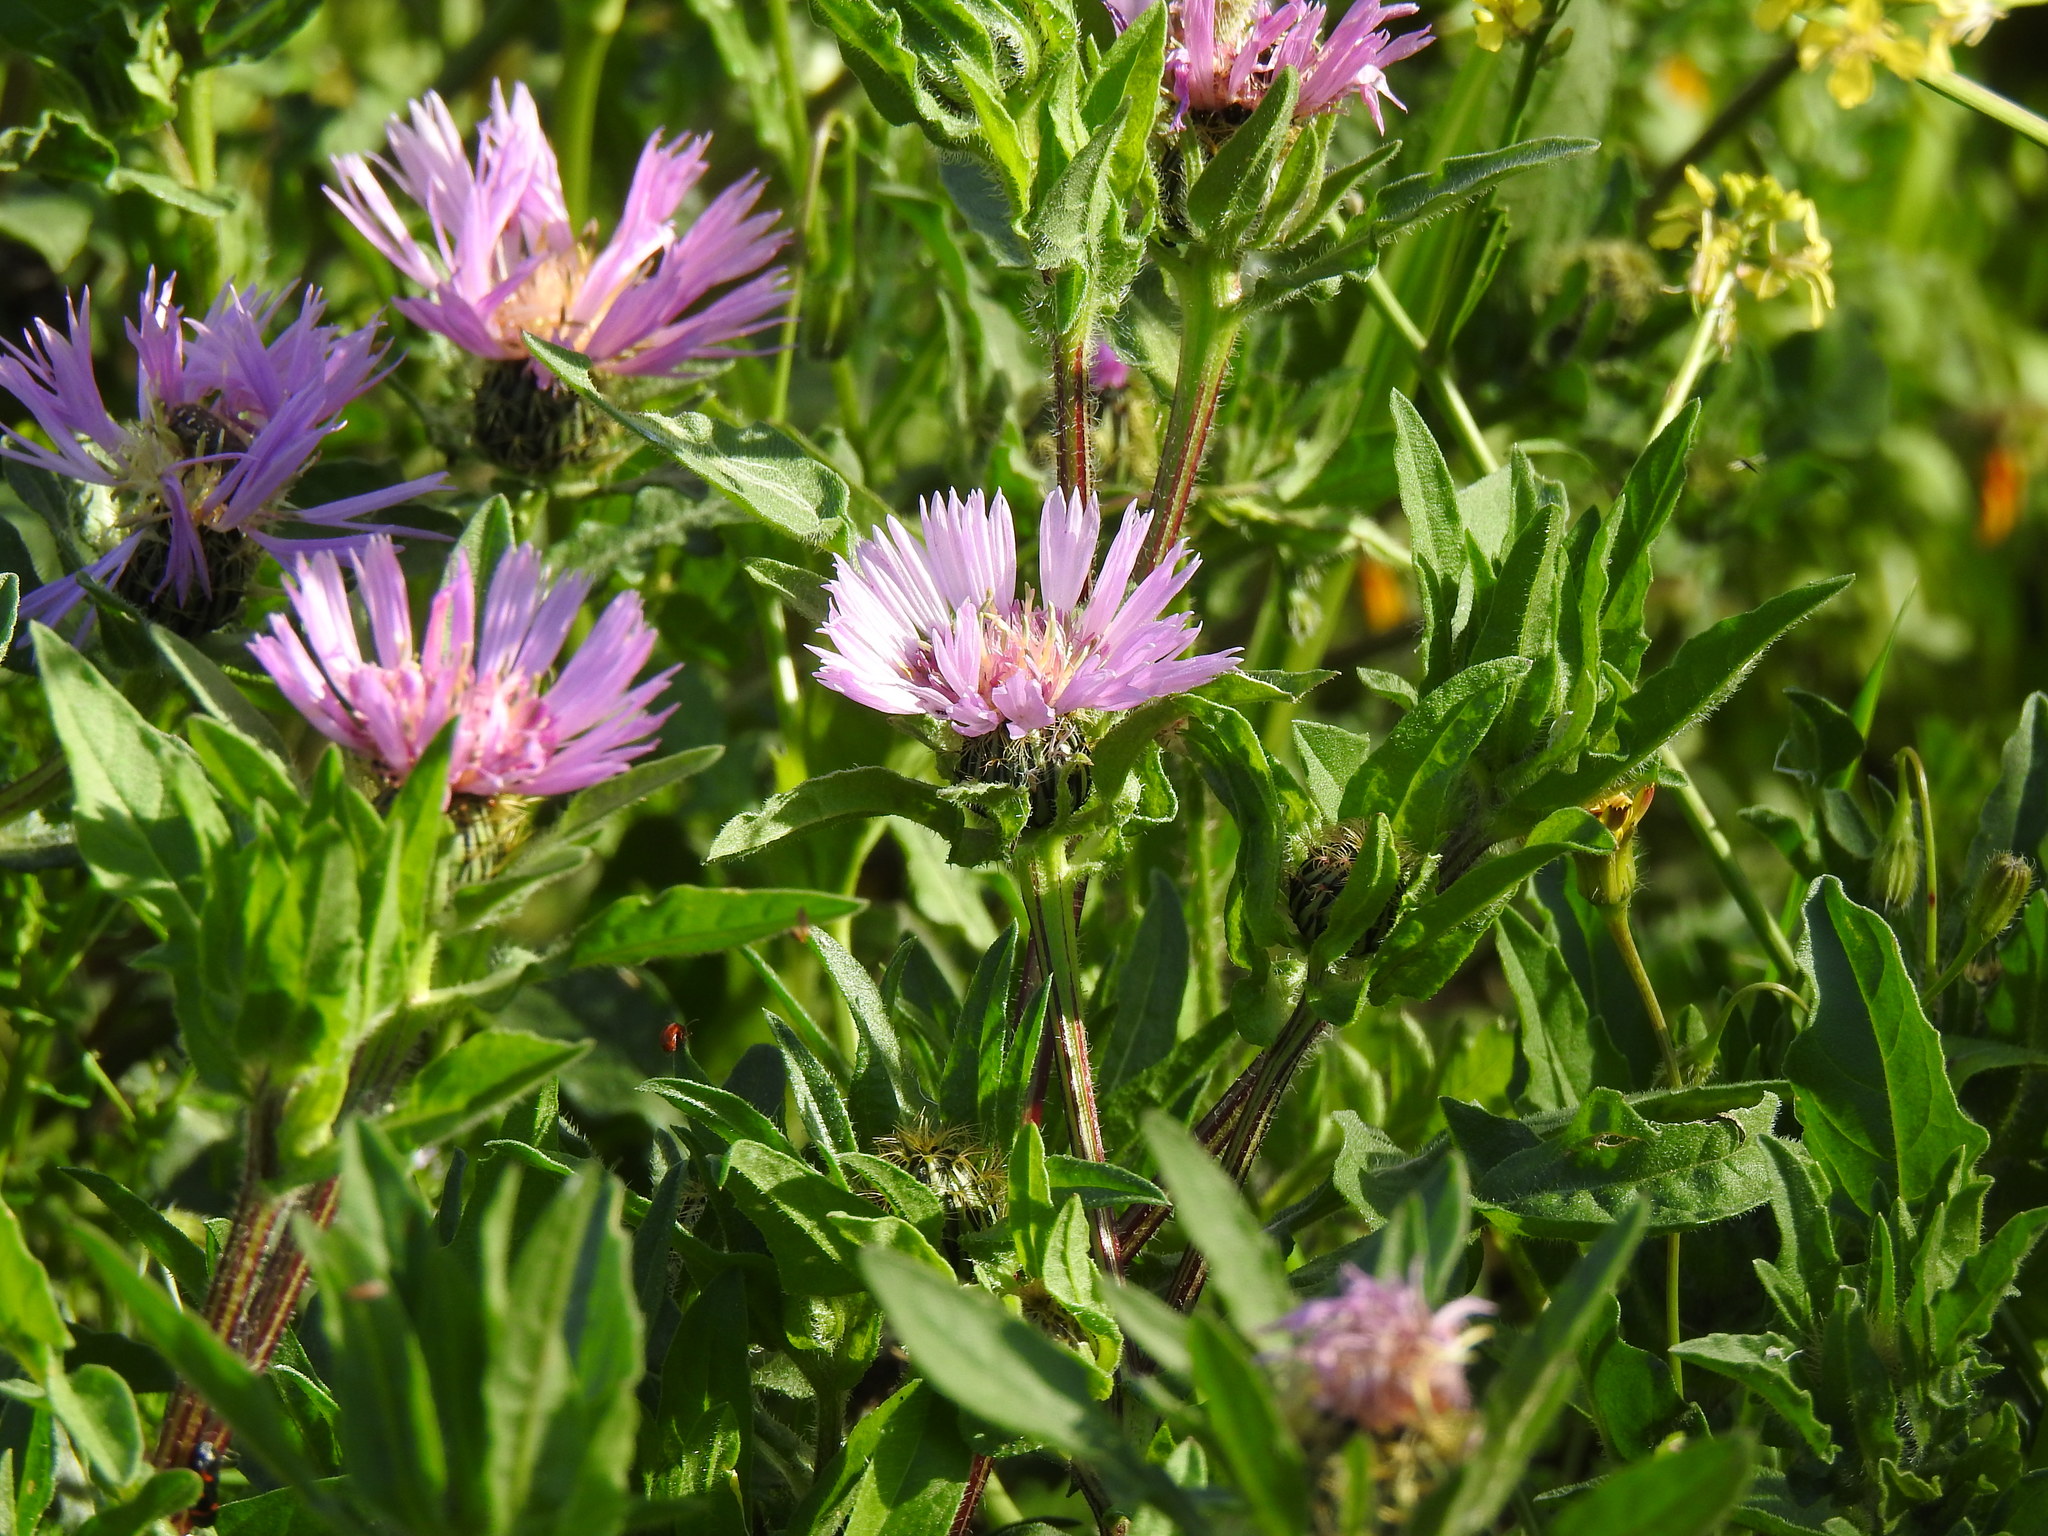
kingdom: Plantae
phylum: Tracheophyta
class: Magnoliopsida
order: Asterales
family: Asteraceae
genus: Centaurea
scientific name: Centaurea pullata
